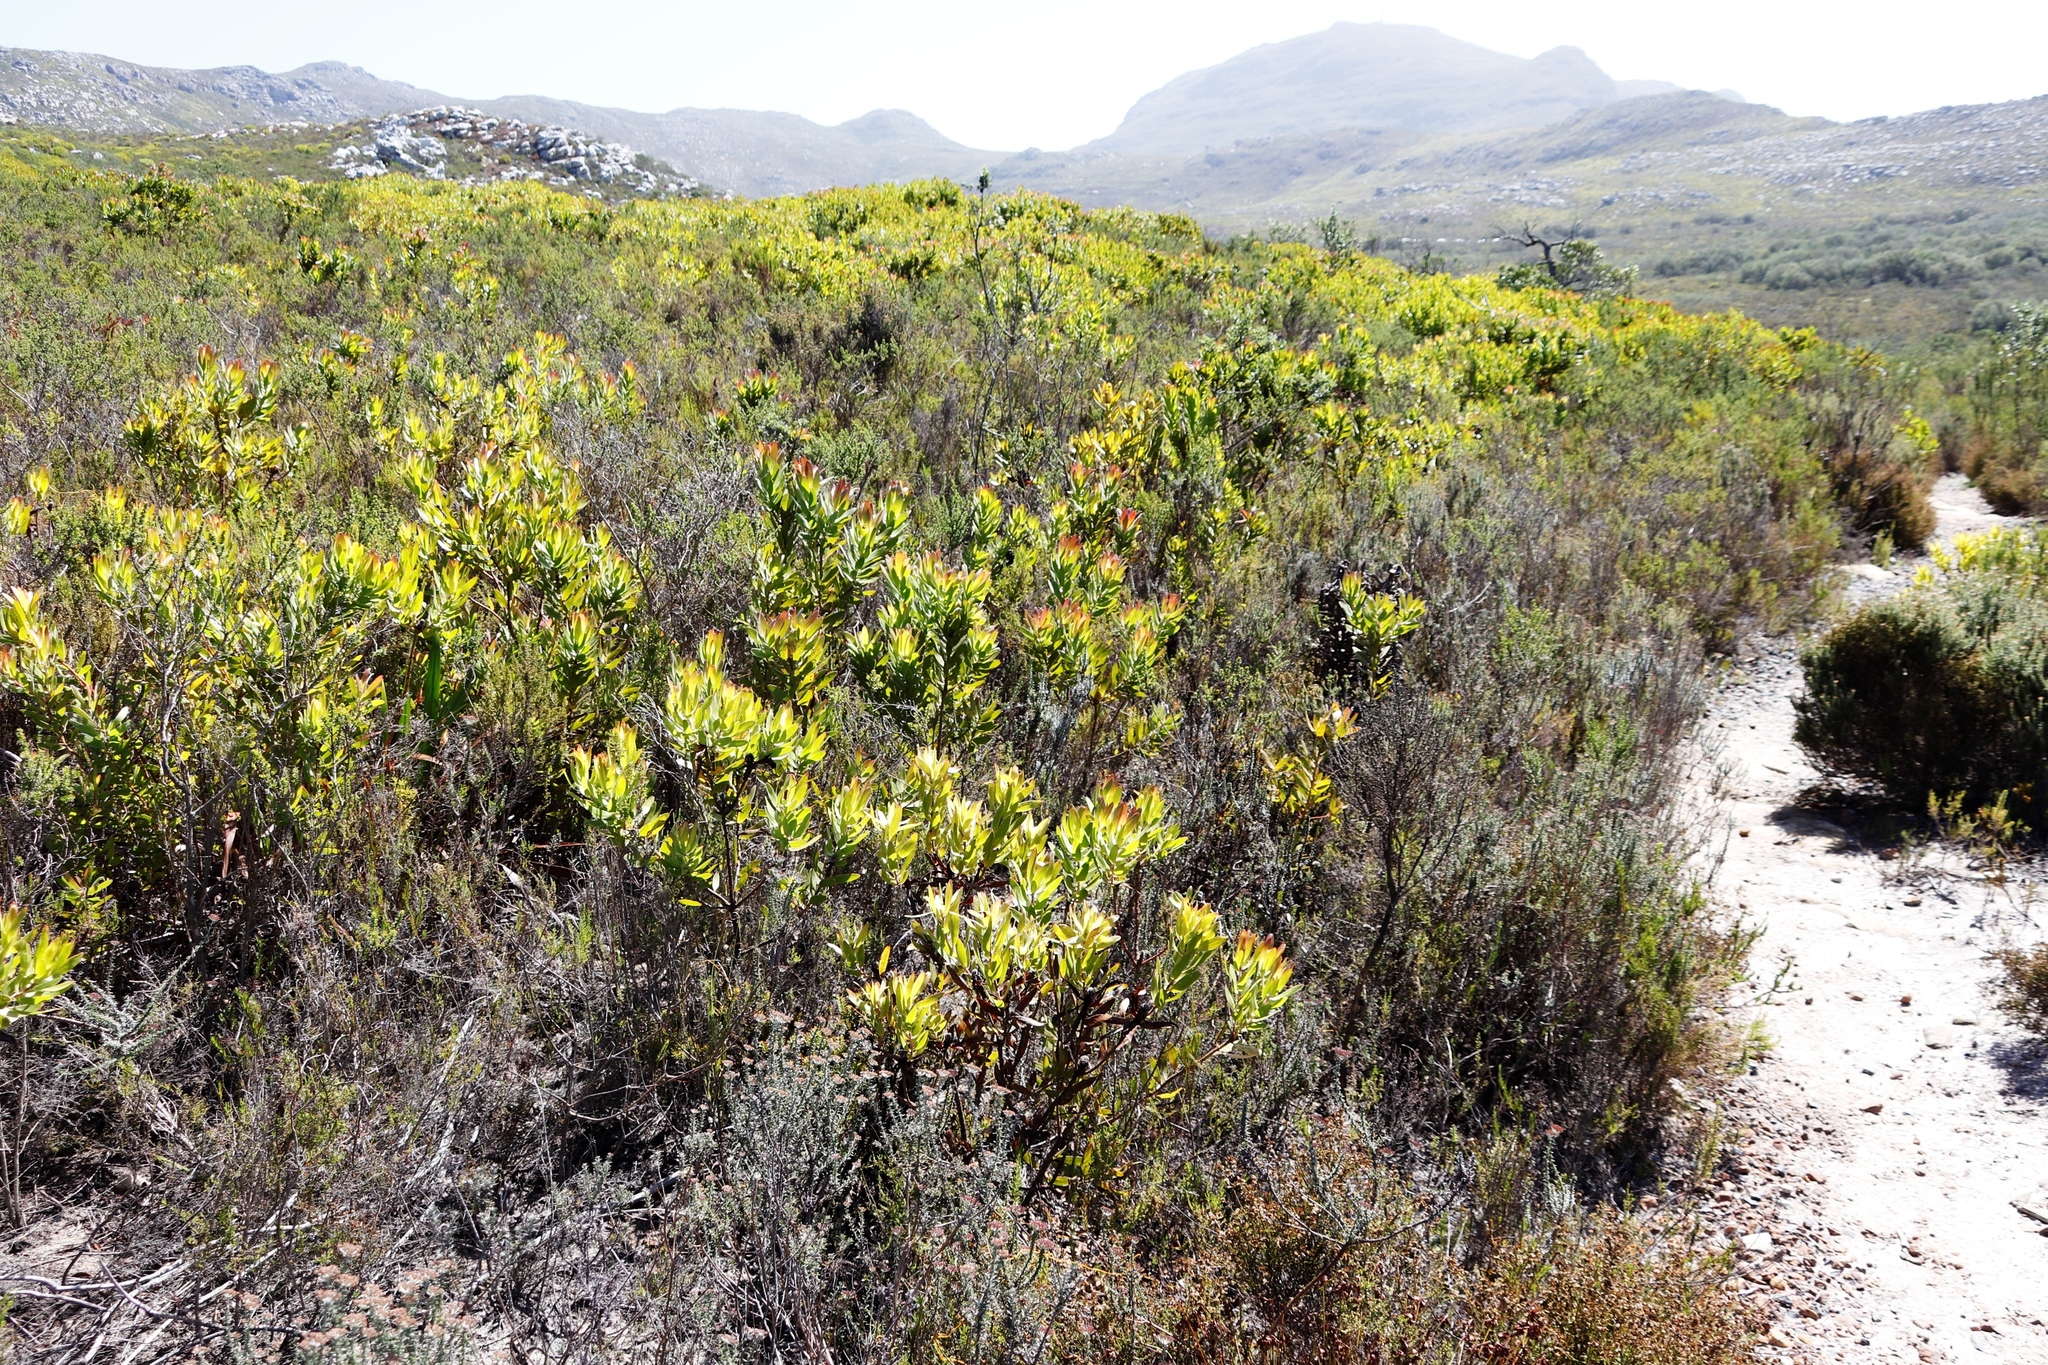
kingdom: Plantae
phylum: Tracheophyta
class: Magnoliopsida
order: Proteales
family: Proteaceae
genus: Leucadendron
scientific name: Leucadendron laureolum
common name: Golden sunshinebush
